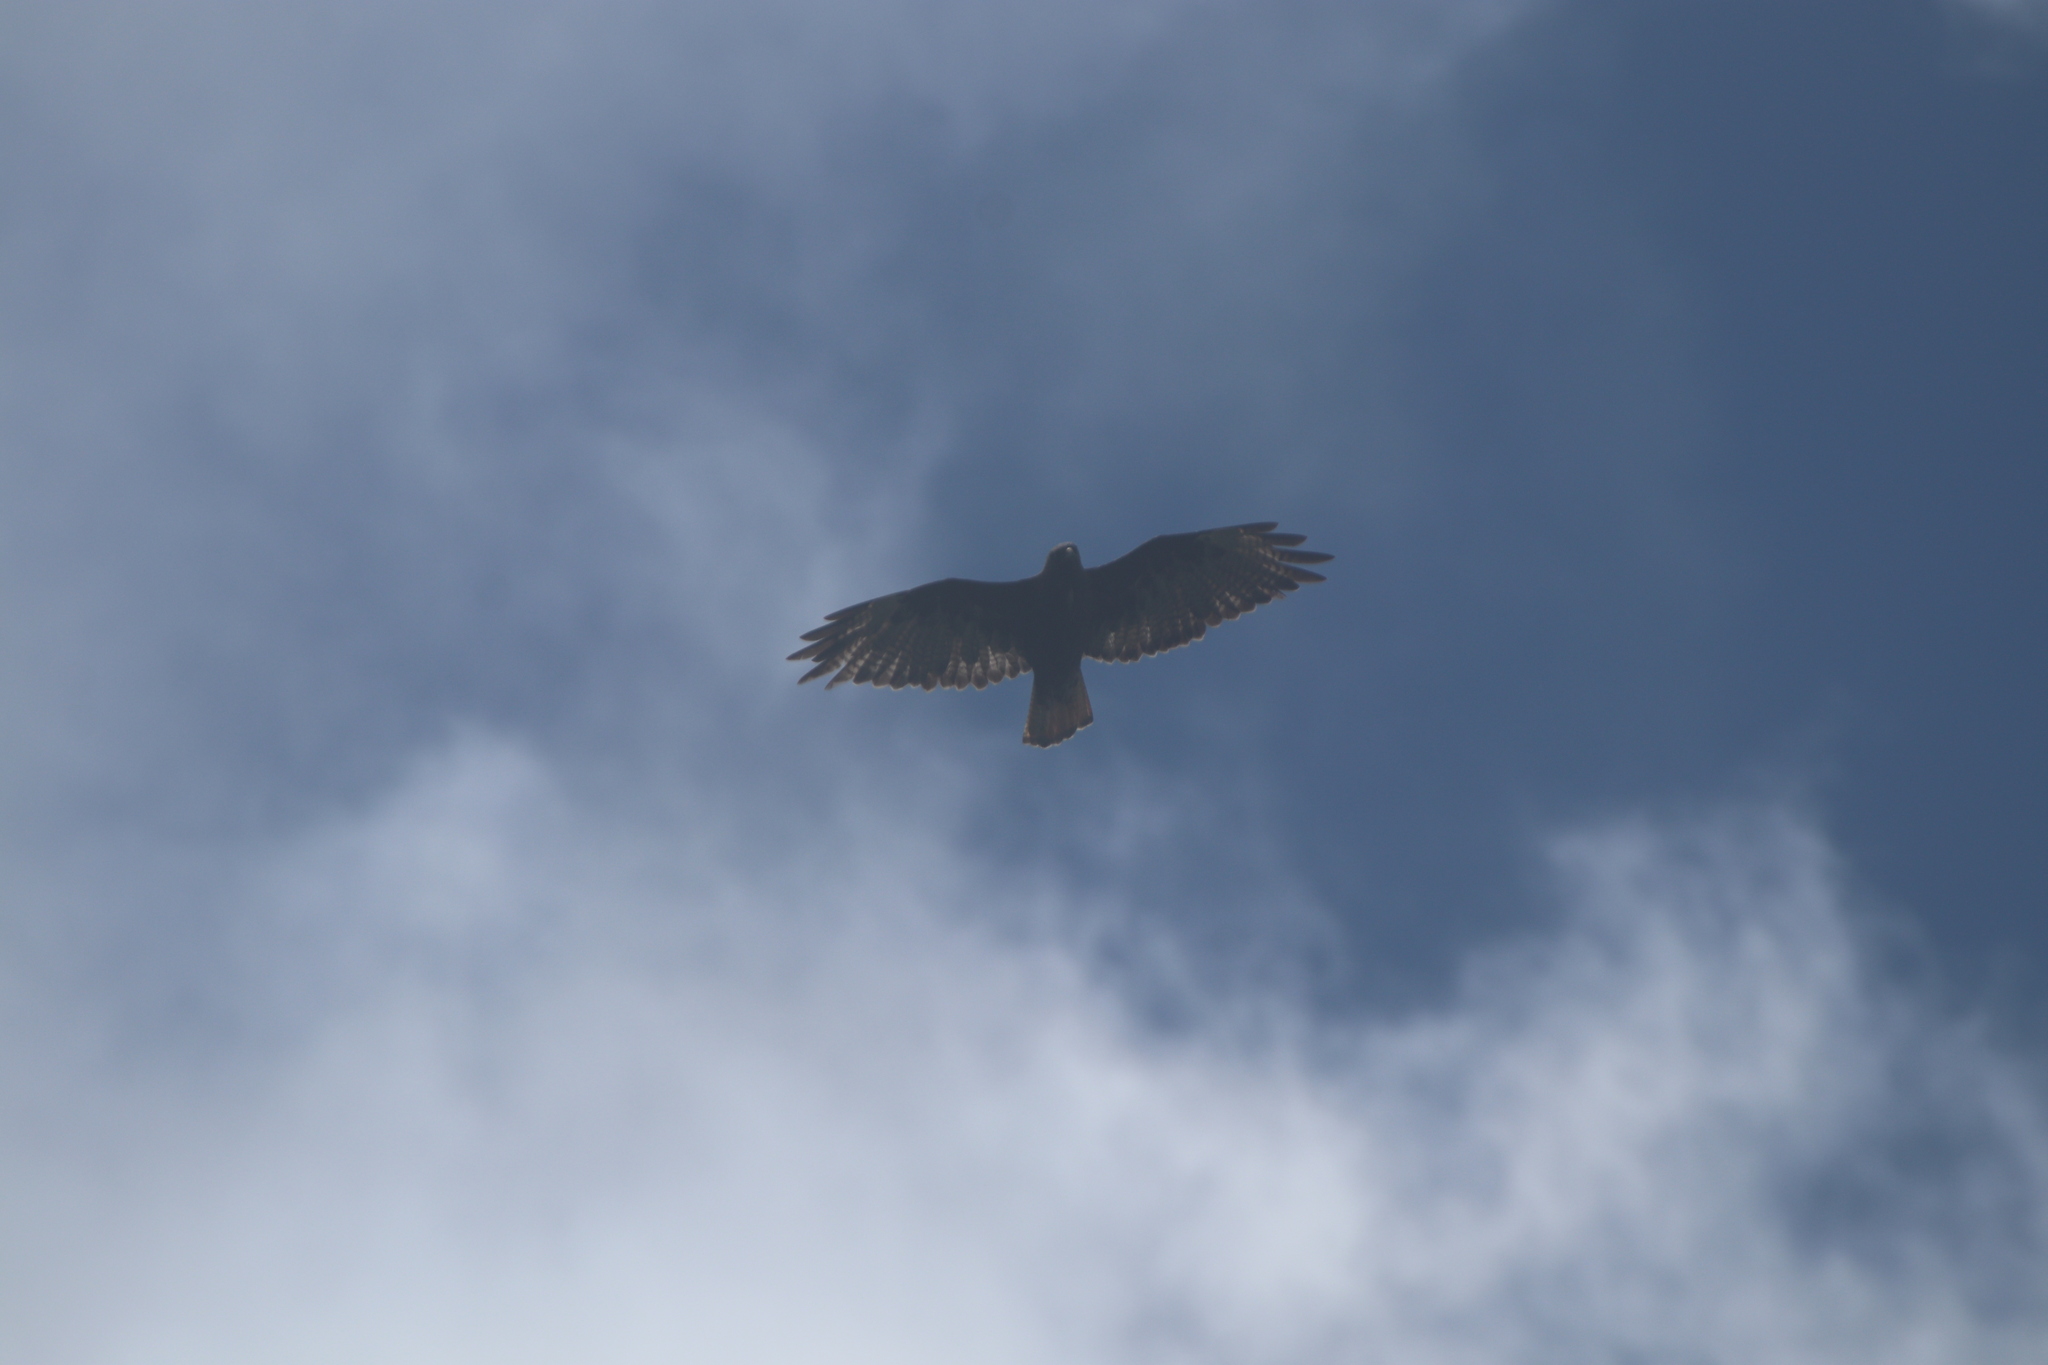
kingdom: Animalia
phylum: Chordata
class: Aves
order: Accipitriformes
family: Accipitridae
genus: Buteo
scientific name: Buteo jamaicensis
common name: Red-tailed hawk
